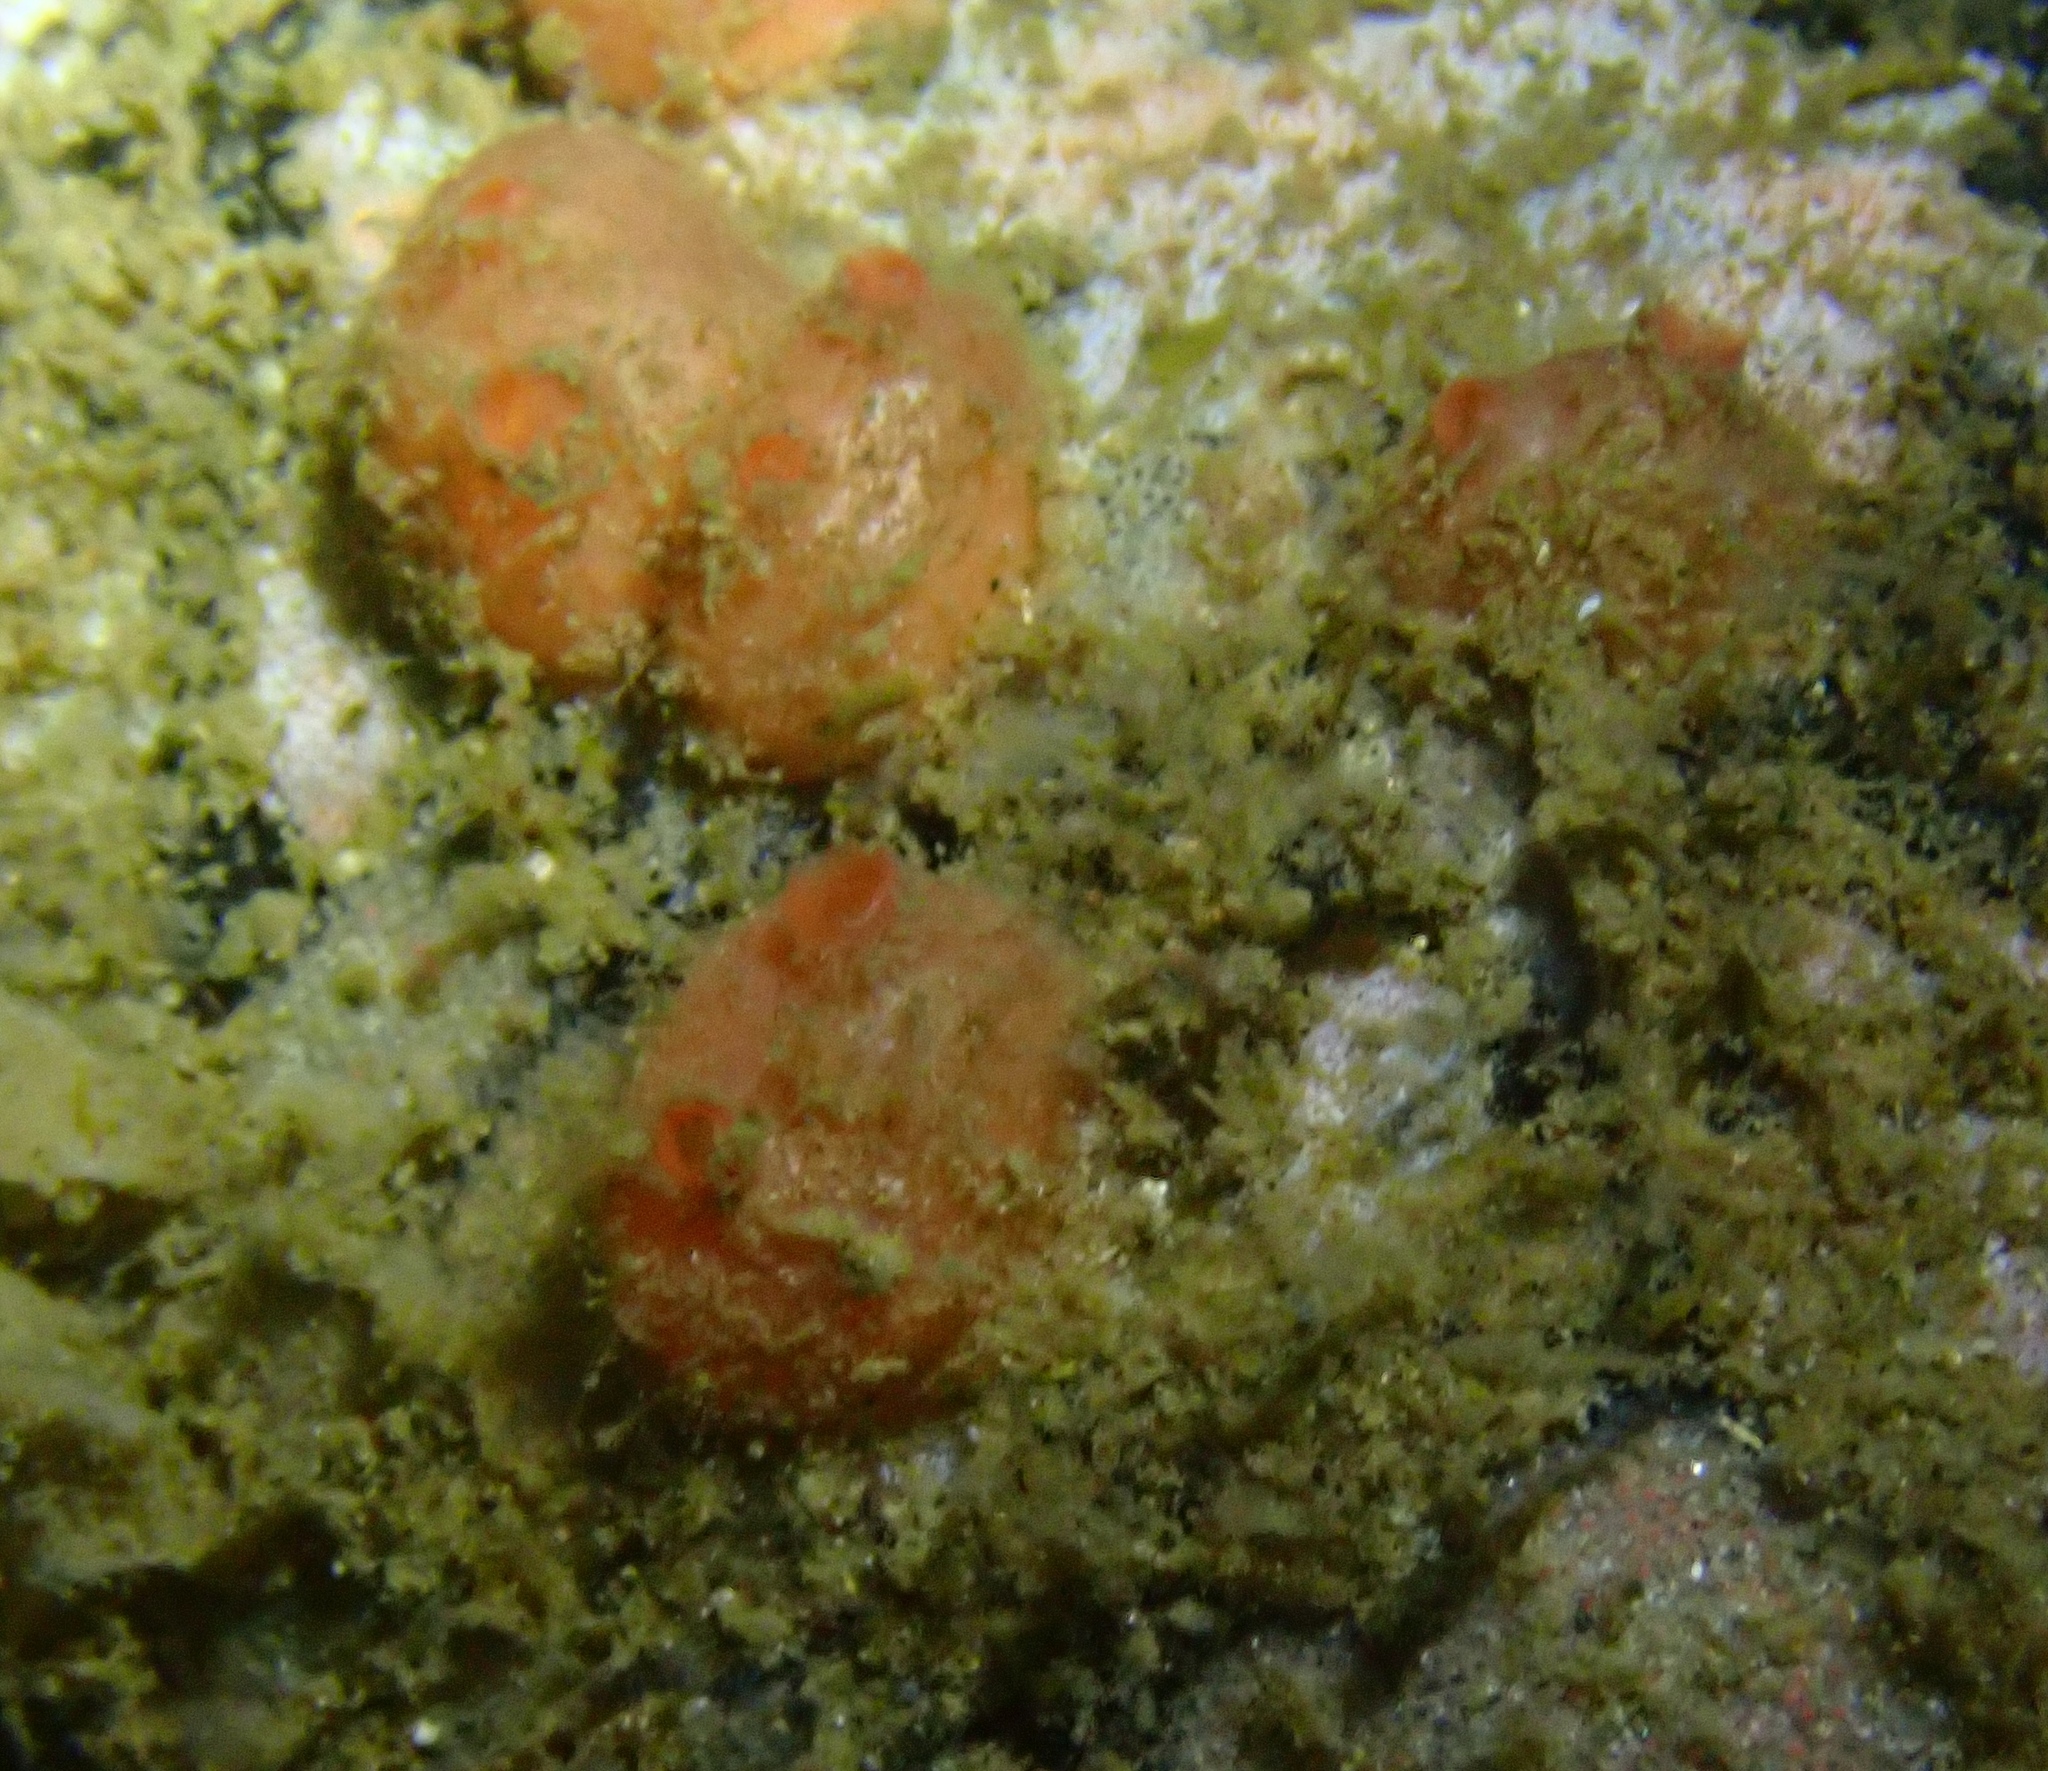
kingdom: Animalia
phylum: Chordata
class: Ascidiacea
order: Stolidobranchia
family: Styelidae
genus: Dendrodoa
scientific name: Dendrodoa grossularia
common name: Baked bean ascidian
